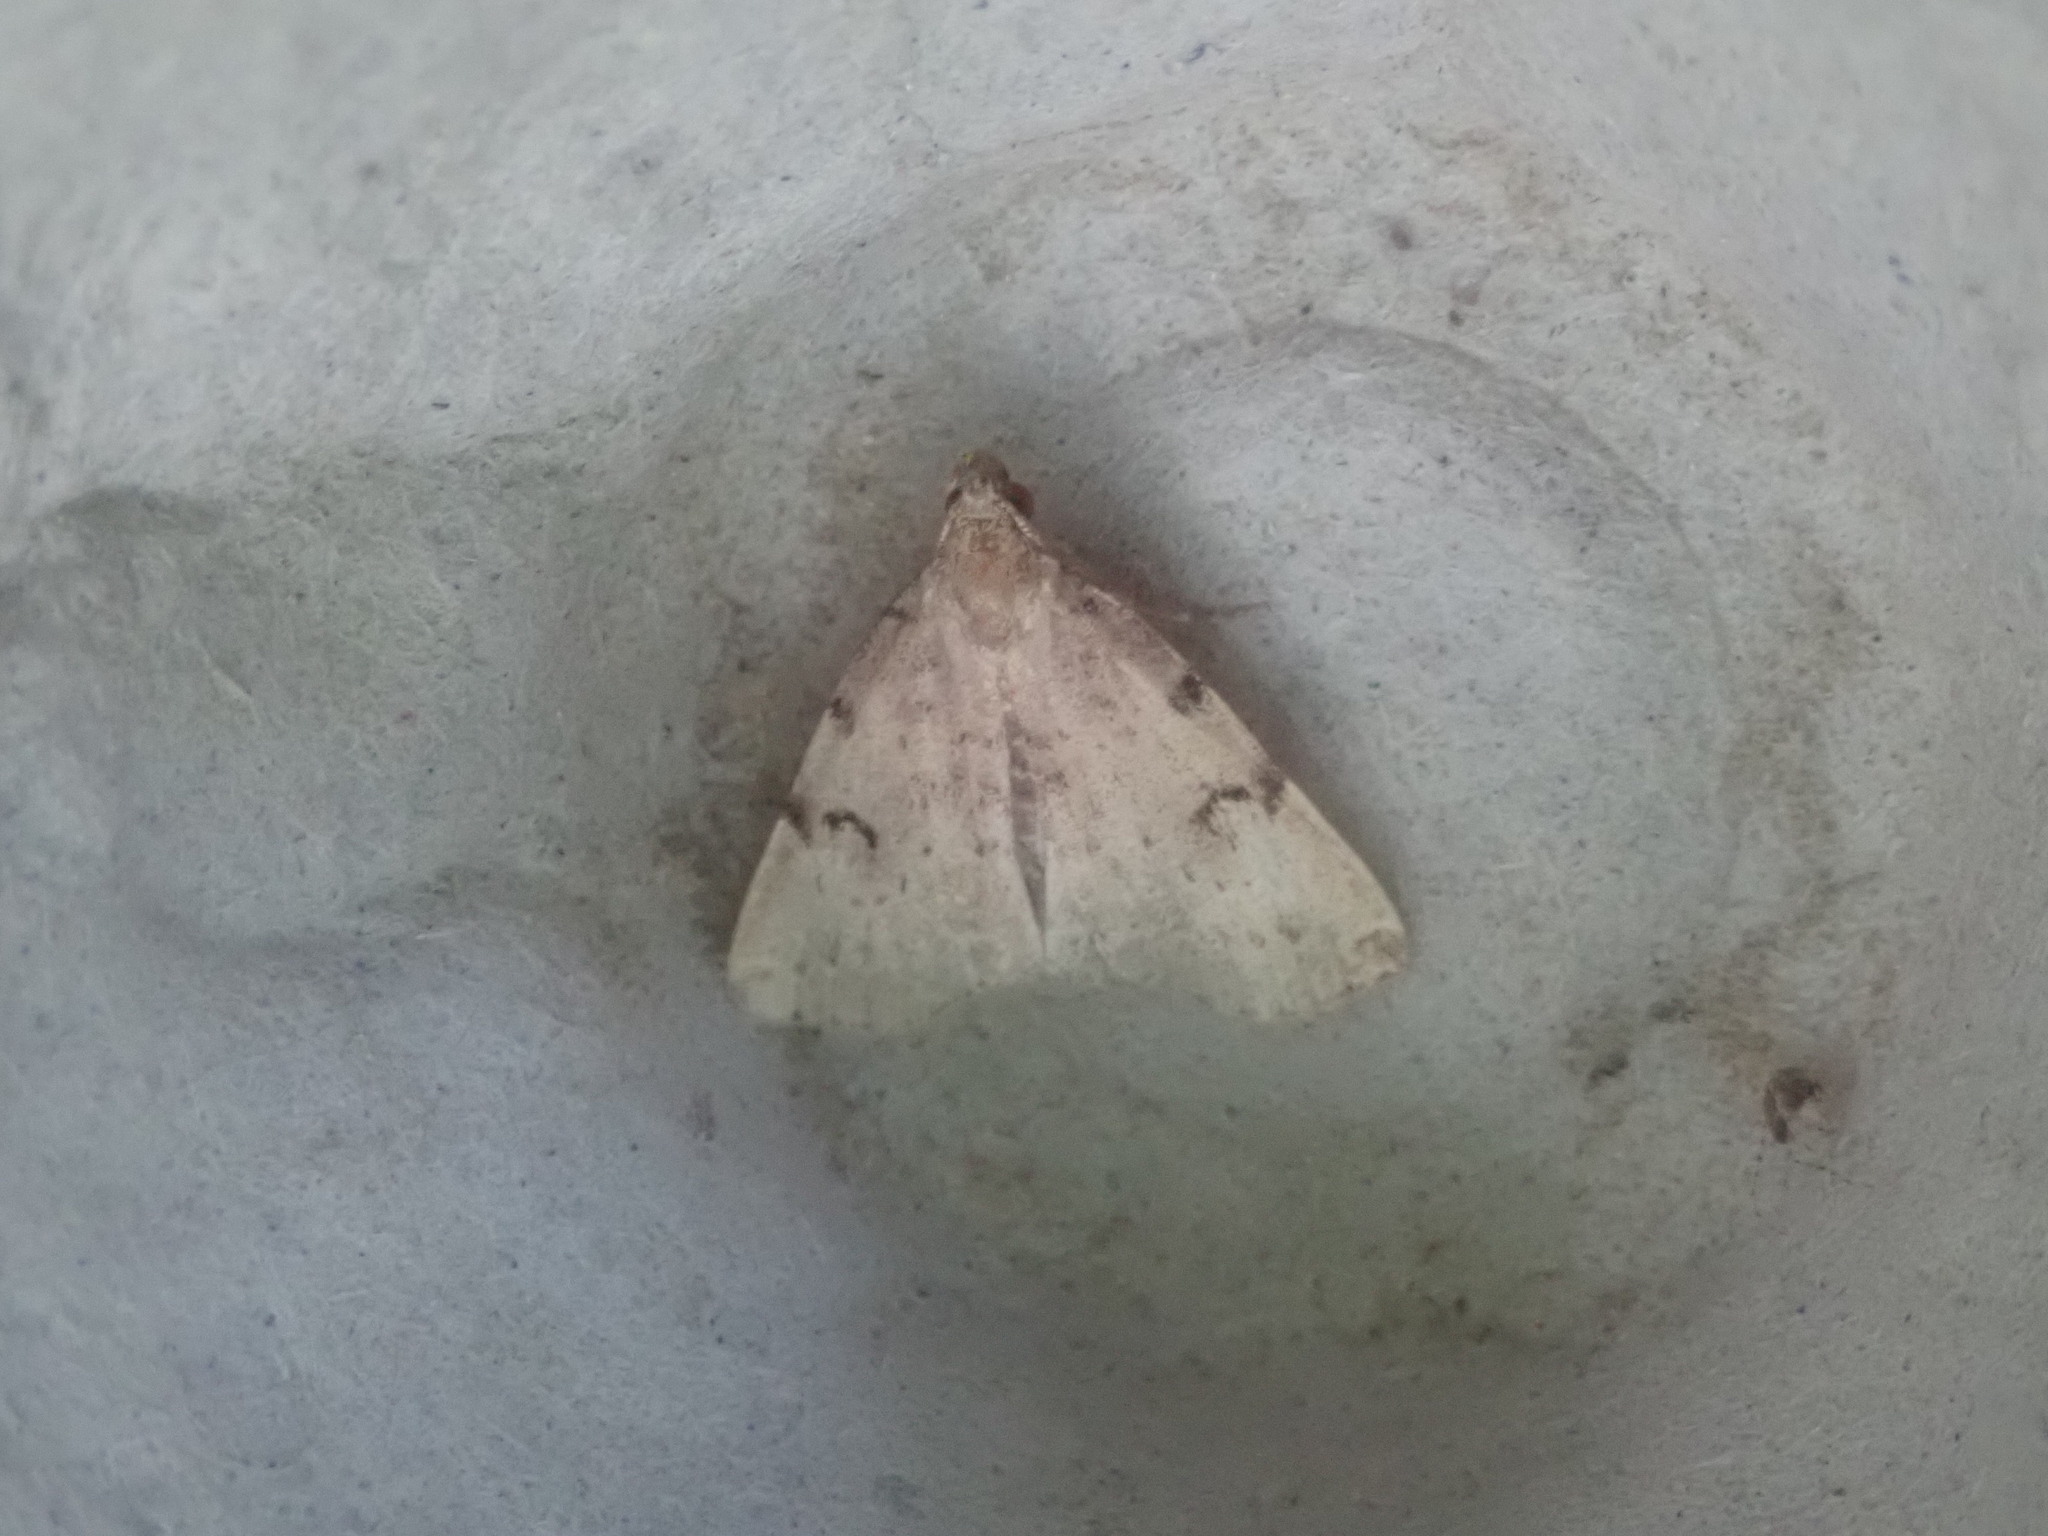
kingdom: Animalia
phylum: Arthropoda
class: Insecta
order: Lepidoptera
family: Erebidae
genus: Zanclognatha
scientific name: Zanclognatha lituralis
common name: Lettered fan-foot
